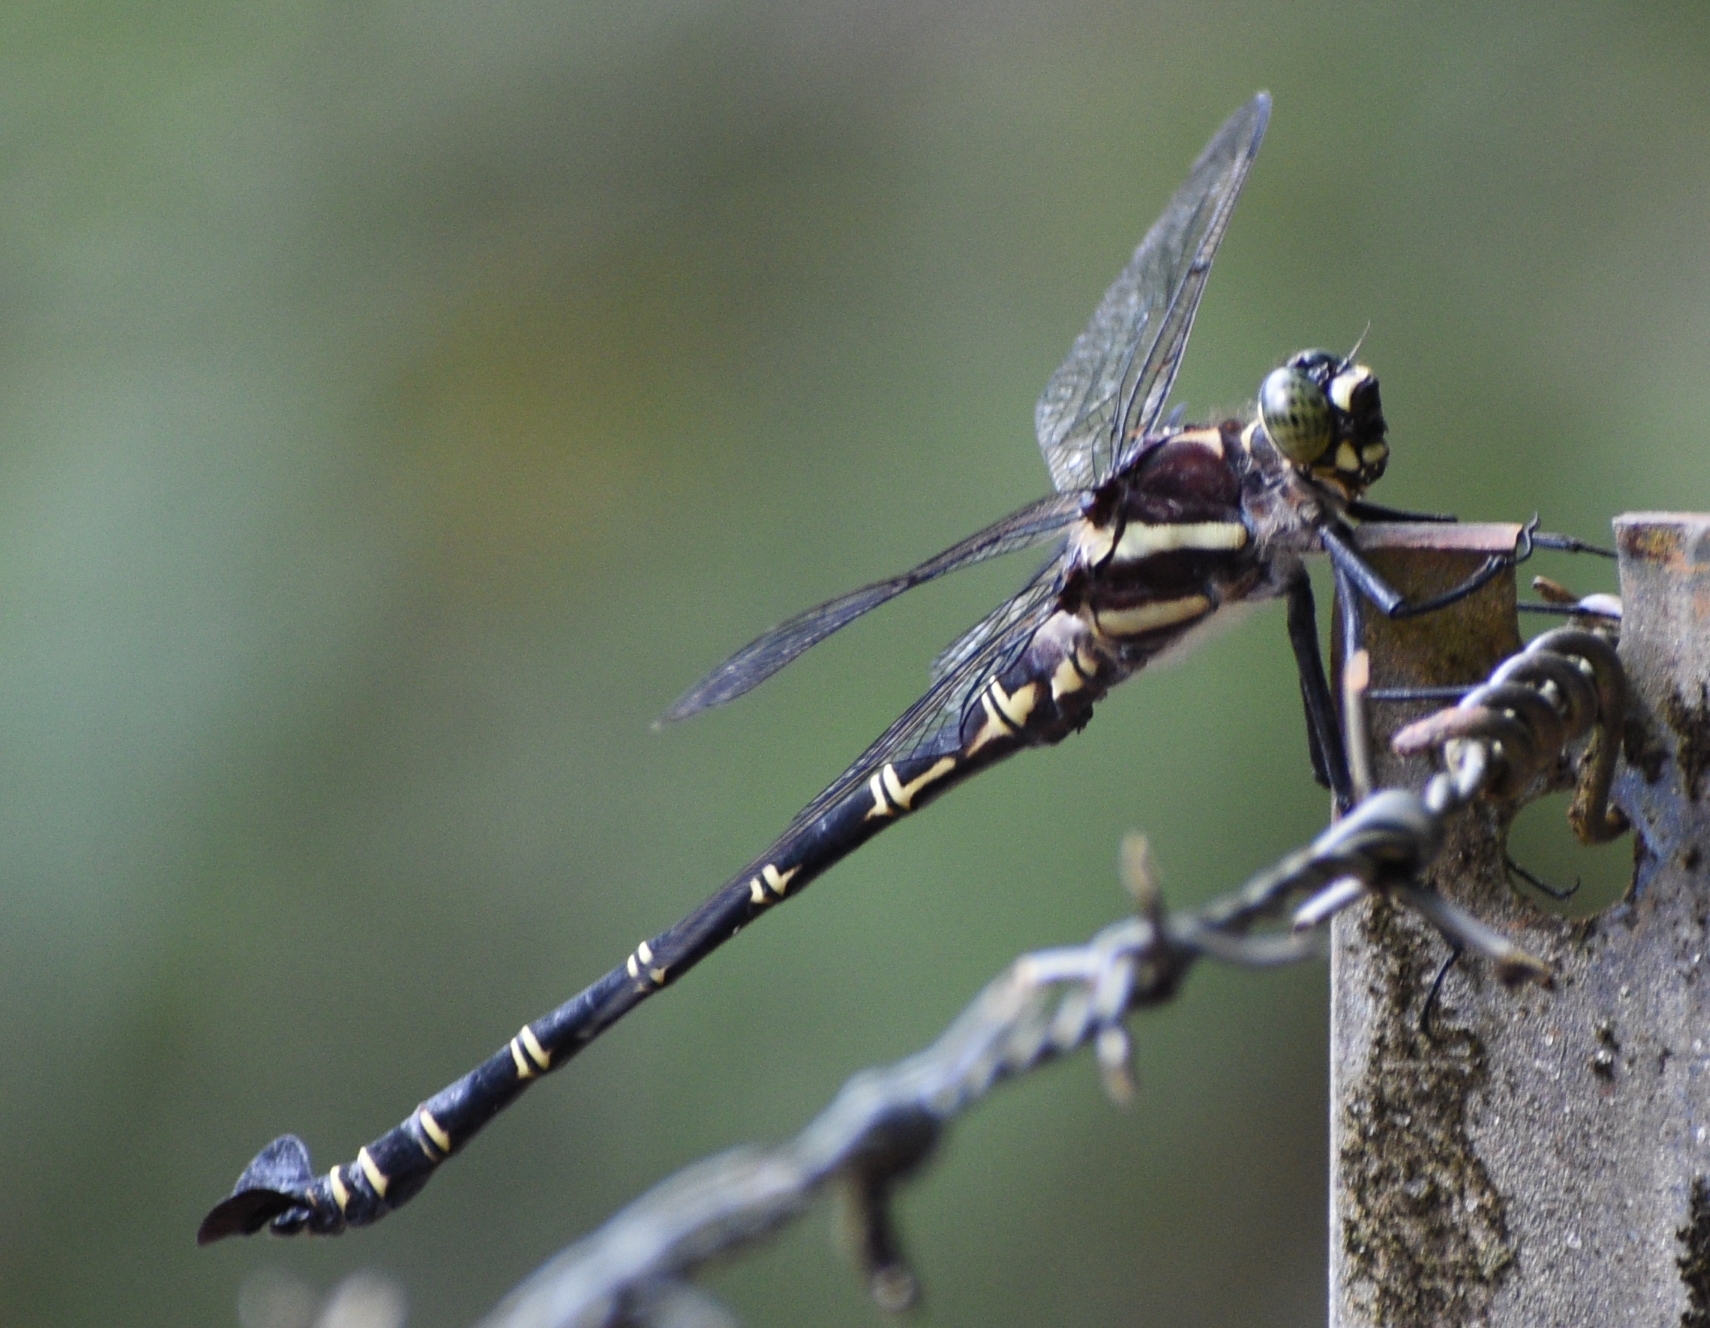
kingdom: Animalia
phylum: Arthropoda
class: Insecta
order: Odonata
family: Petaluridae
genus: Petalura
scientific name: Petalura ingentissima
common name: Giant petaltail
